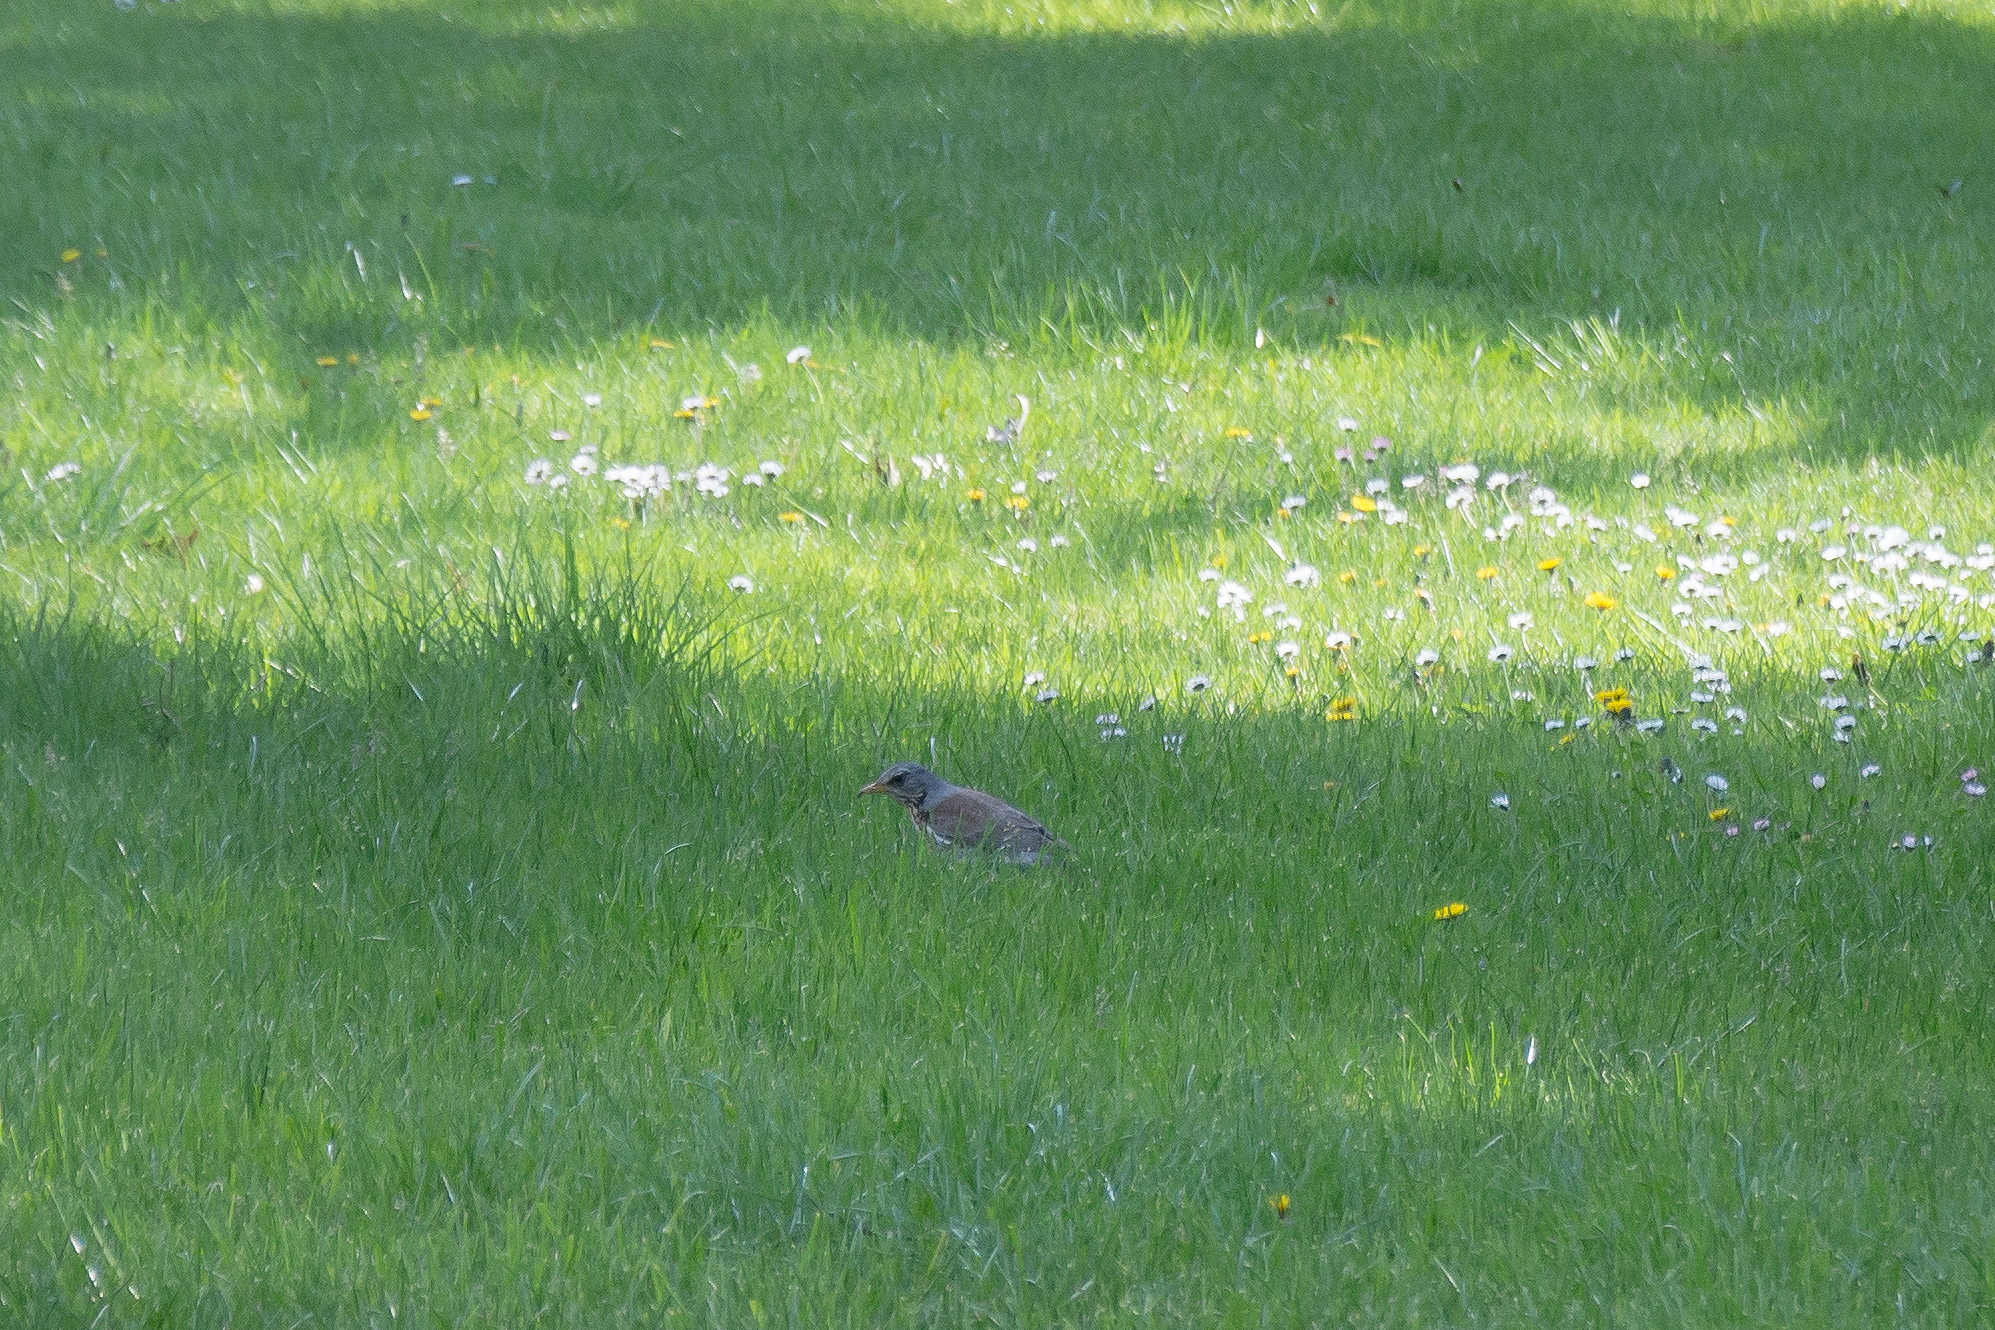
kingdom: Animalia
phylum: Chordata
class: Aves
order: Passeriformes
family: Turdidae
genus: Turdus
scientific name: Turdus pilaris
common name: Fieldfare
